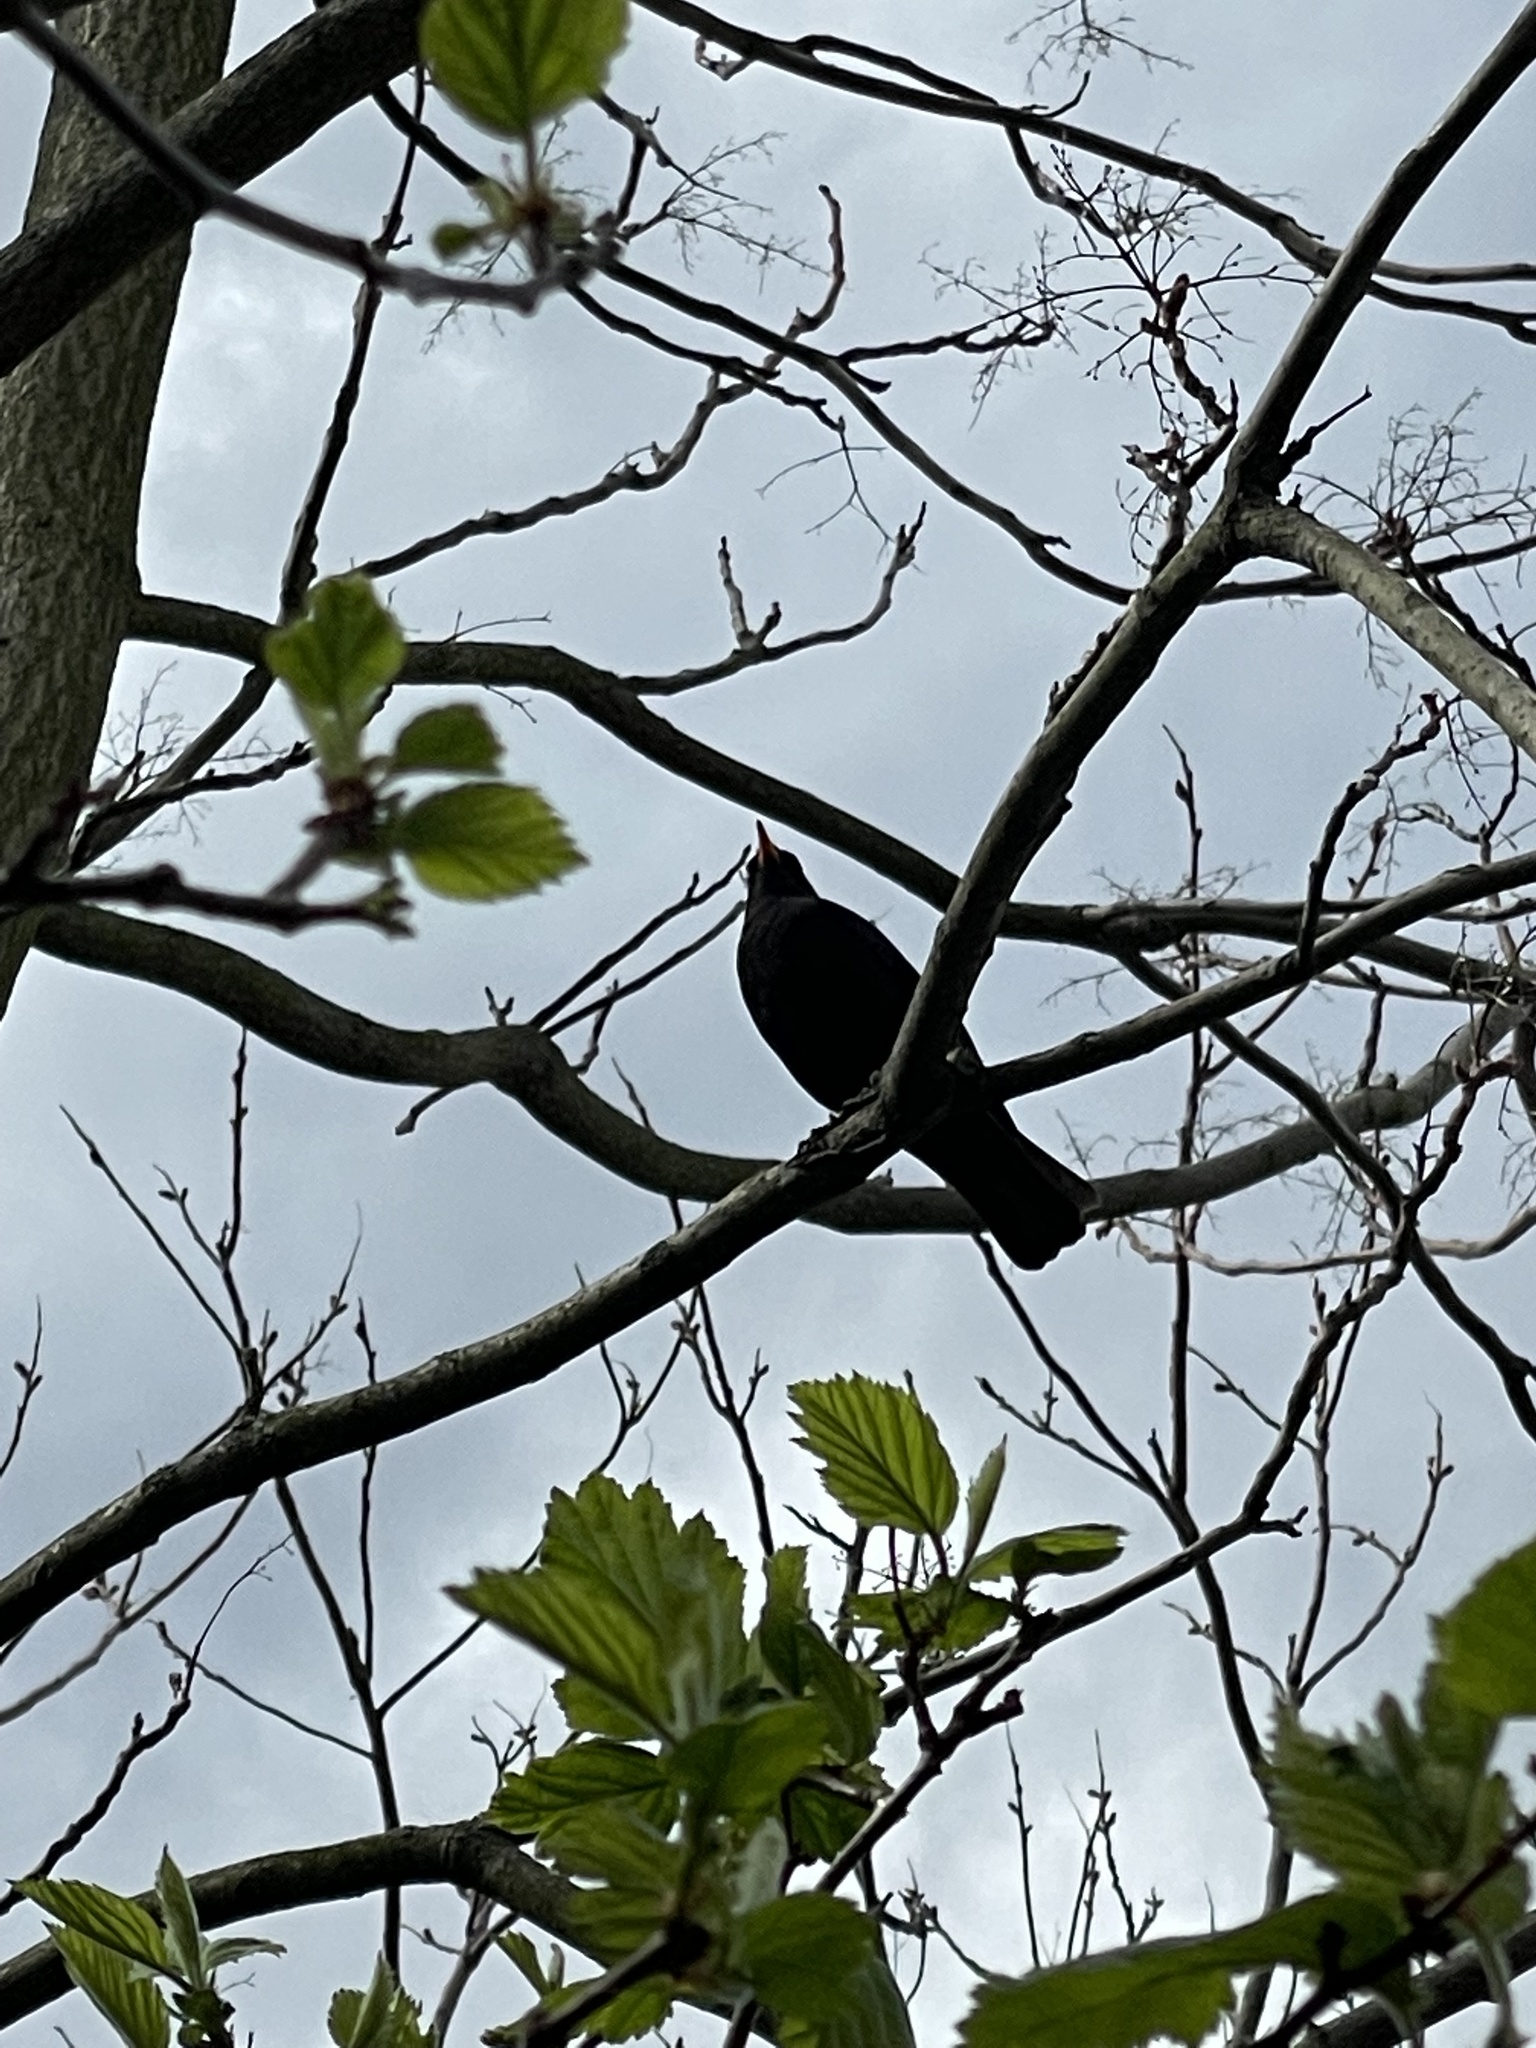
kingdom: Animalia
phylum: Chordata
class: Aves
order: Passeriformes
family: Turdidae
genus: Turdus
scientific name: Turdus merula
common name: Common blackbird
